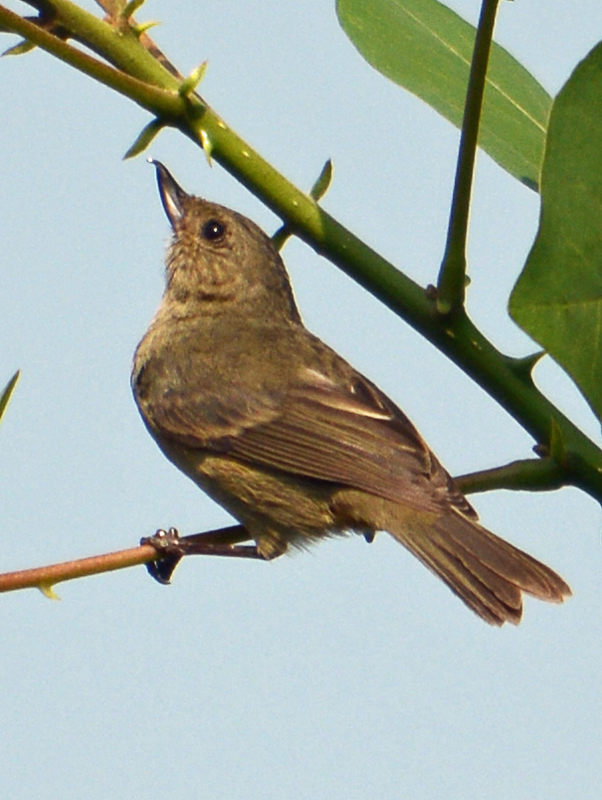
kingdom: Animalia
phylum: Chordata
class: Aves
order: Passeriformes
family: Thraupidae
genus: Diglossa
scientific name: Diglossa baritula
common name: Cinnamon-bellied flowerpiercer
